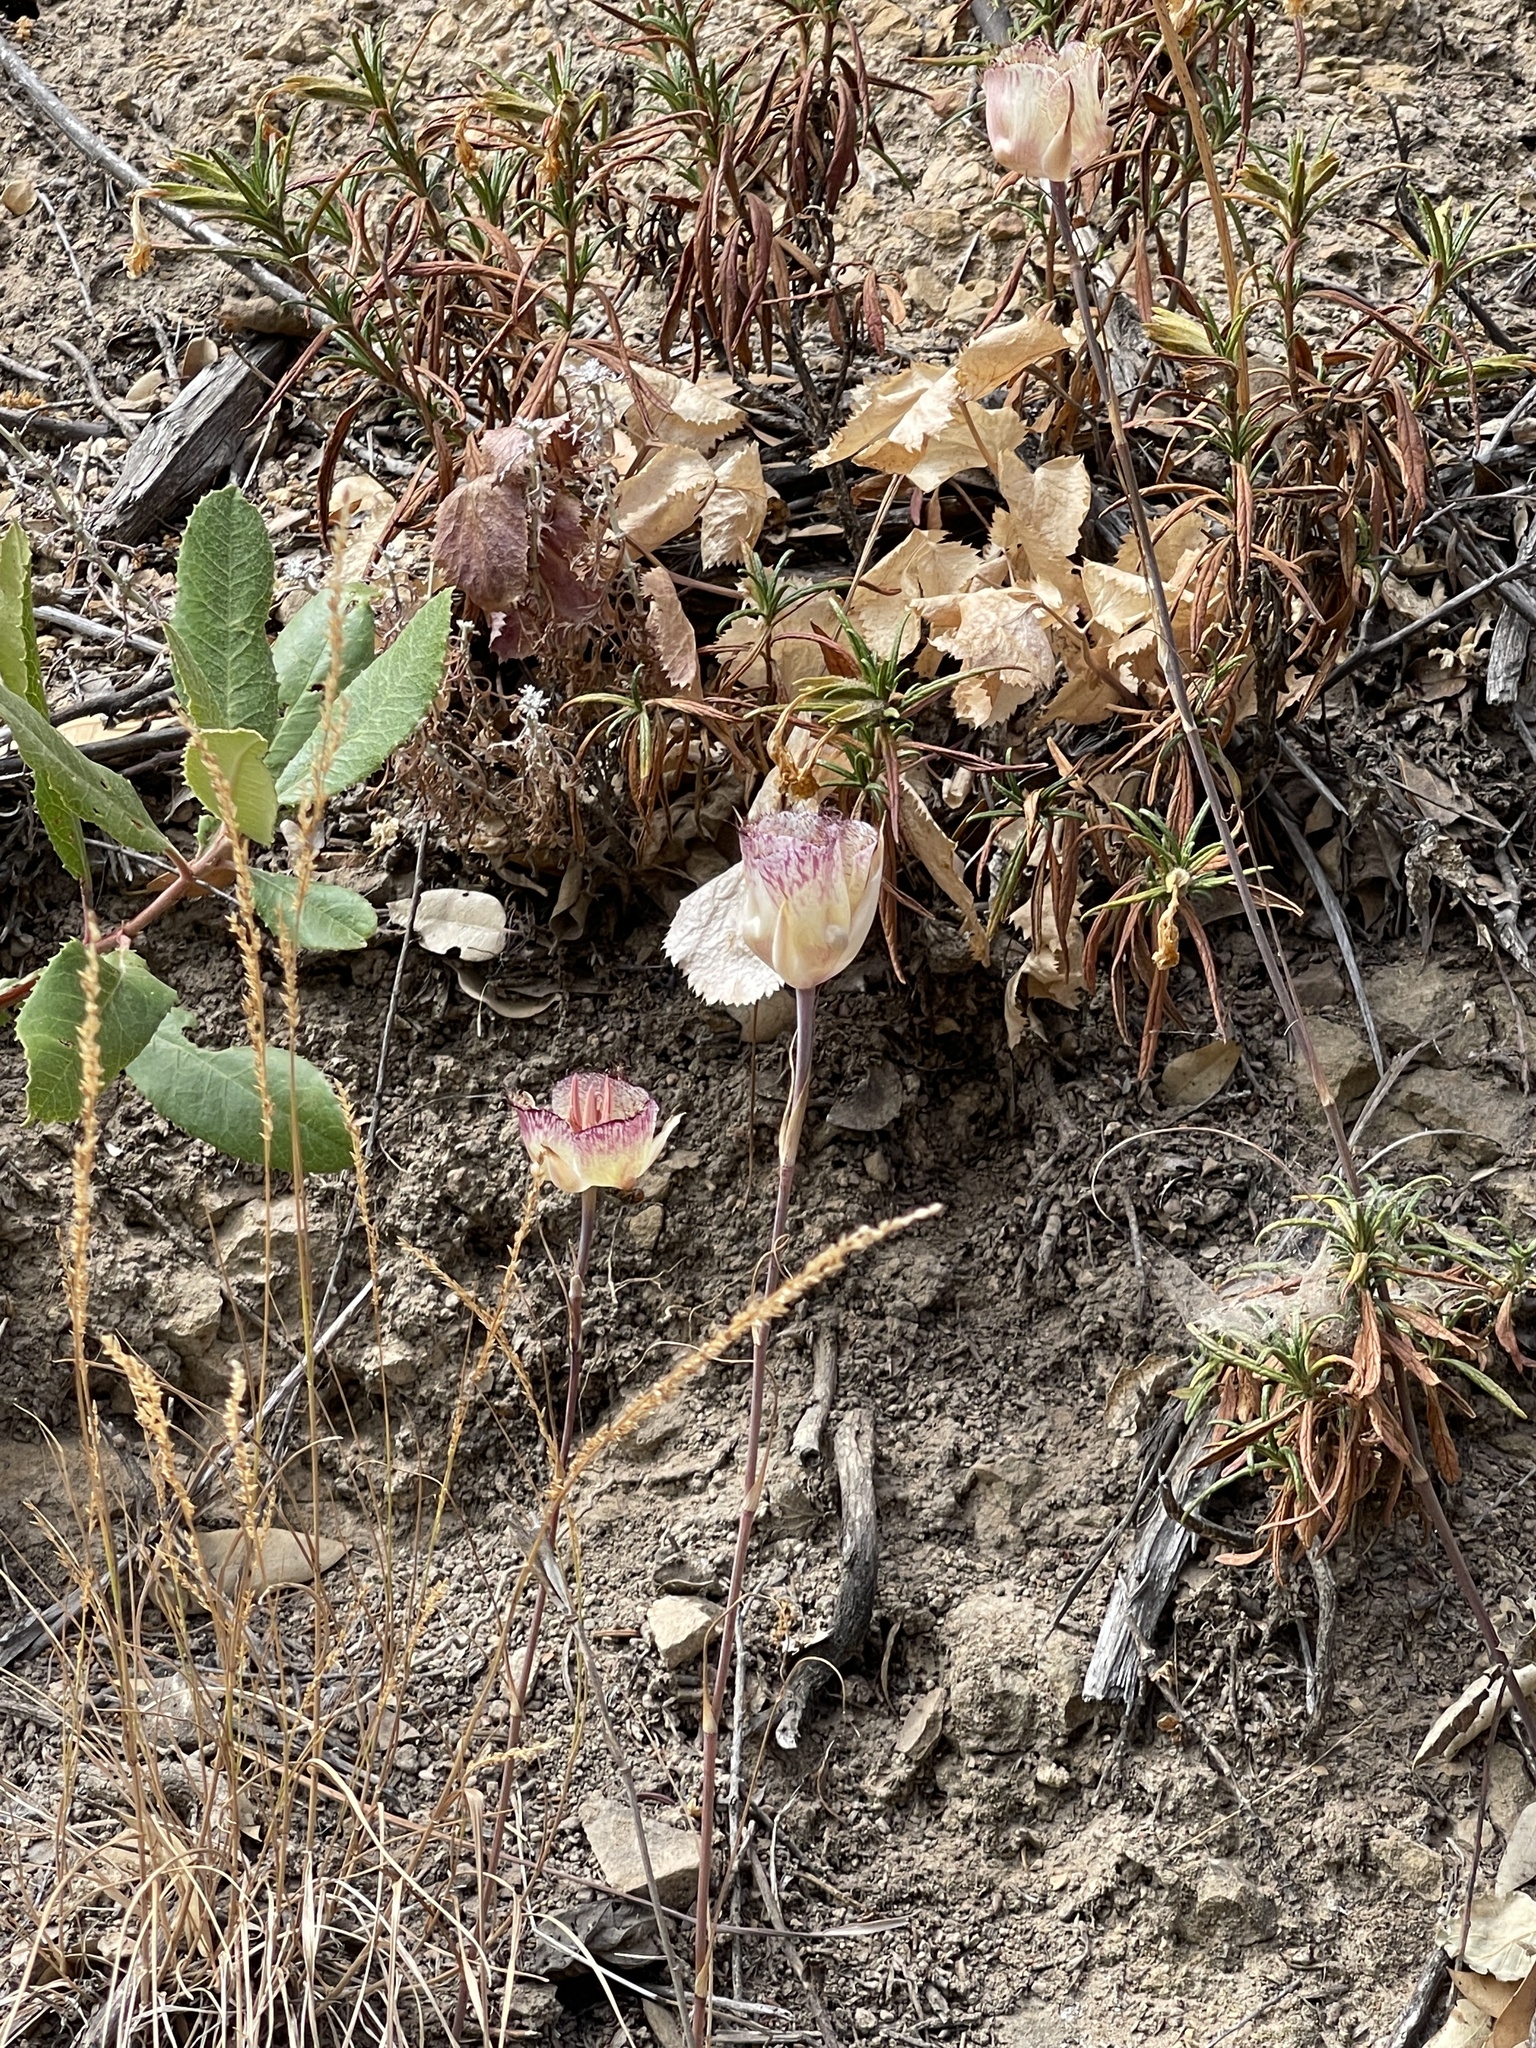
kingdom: Plantae
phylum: Tracheophyta
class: Liliopsida
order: Liliales
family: Liliaceae
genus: Calochortus
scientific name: Calochortus fimbriatus
